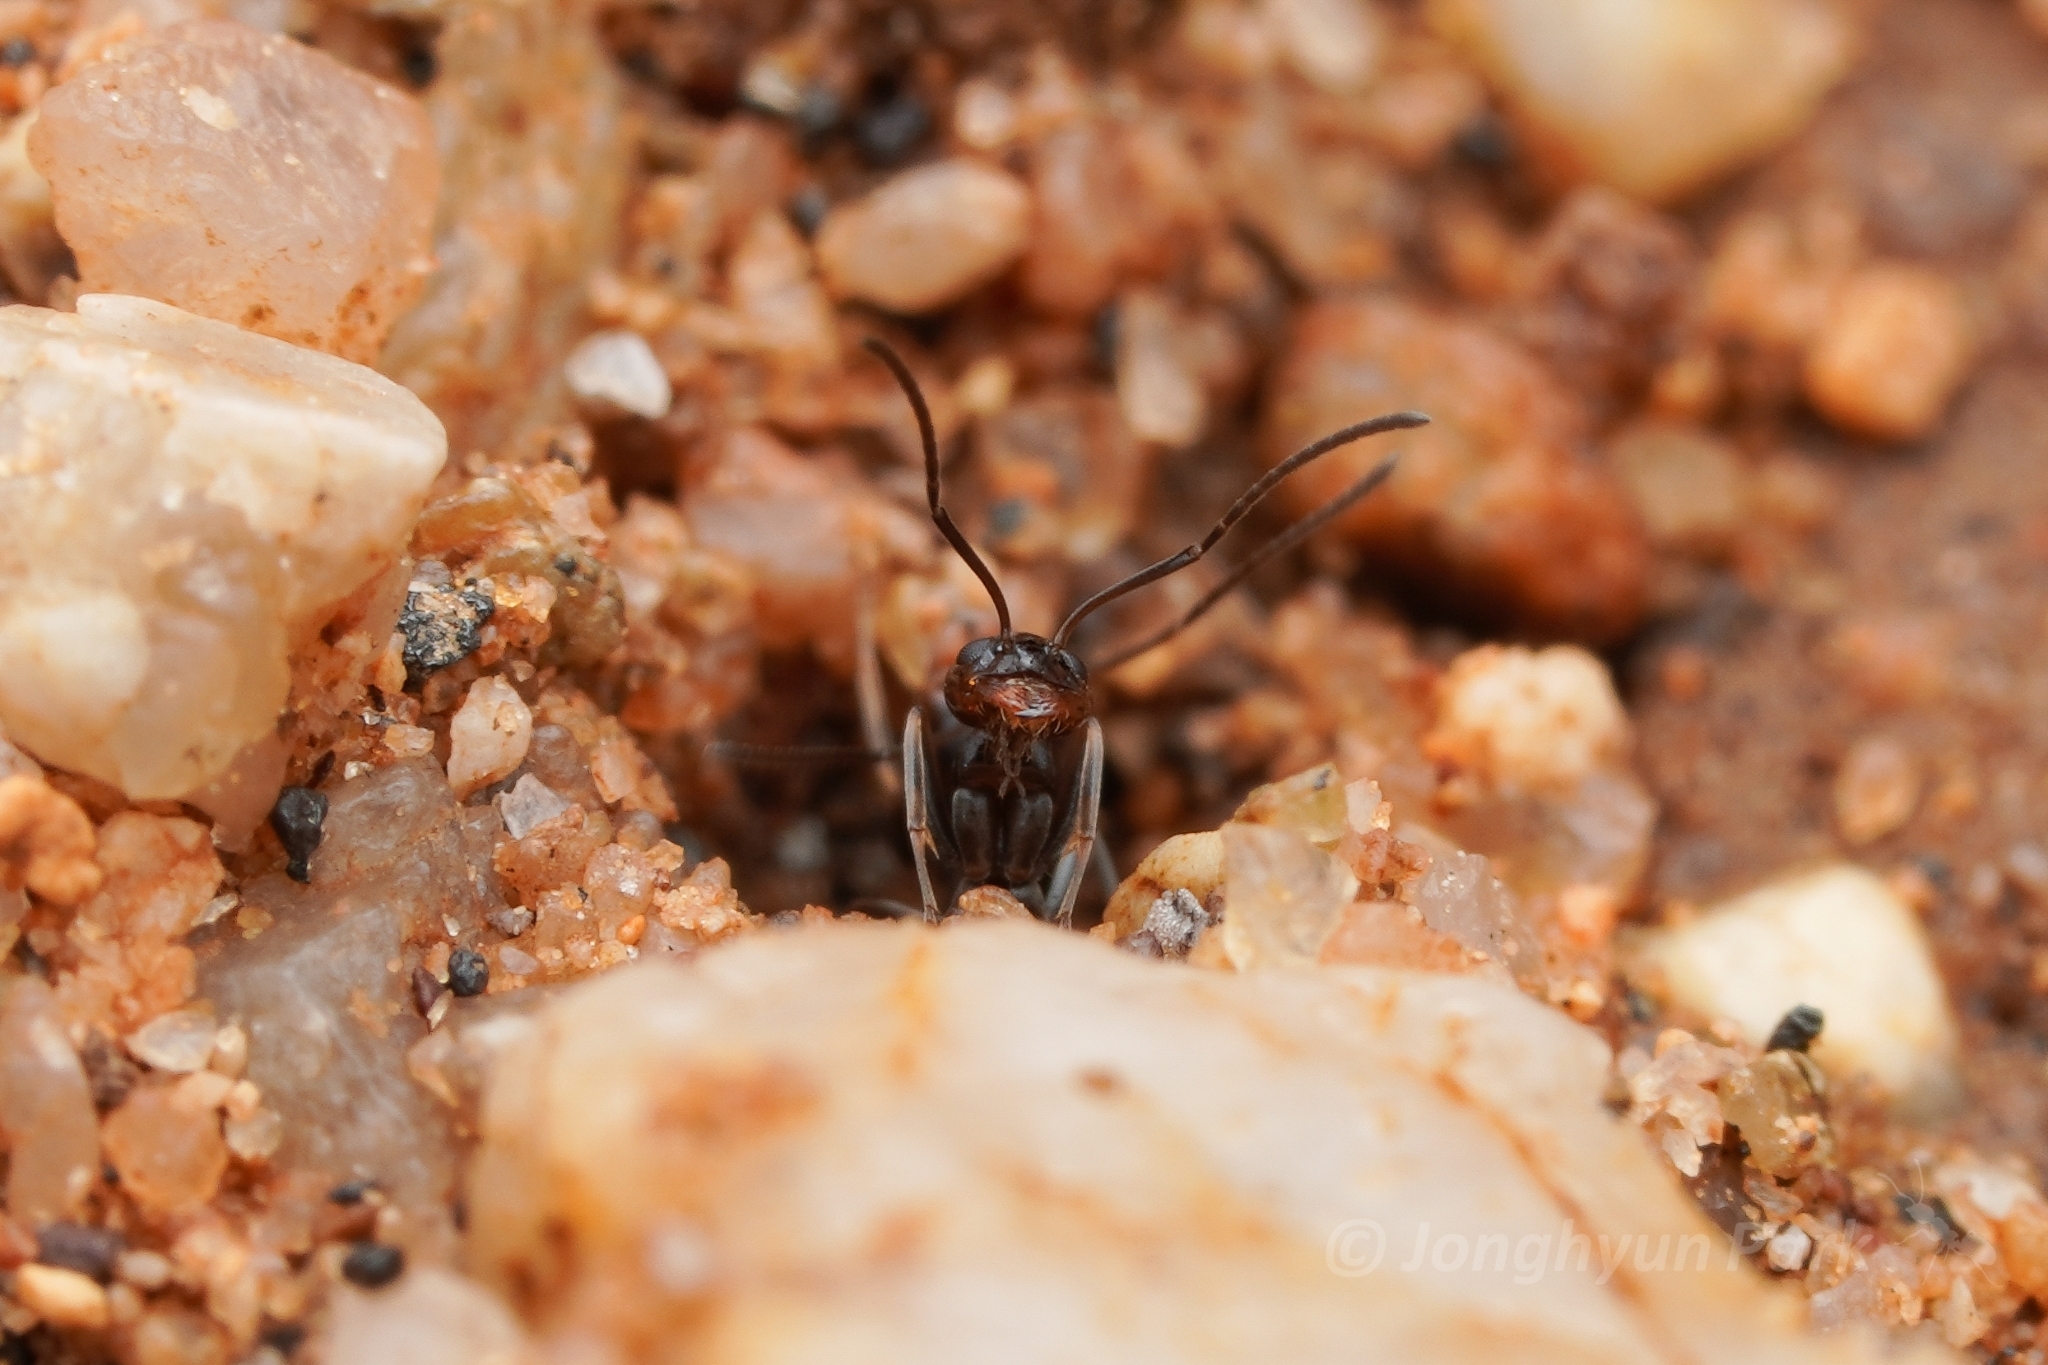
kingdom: Animalia
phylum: Arthropoda
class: Insecta
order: Hymenoptera
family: Formicidae
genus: Dorymyrmex
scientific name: Dorymyrmex insanus
